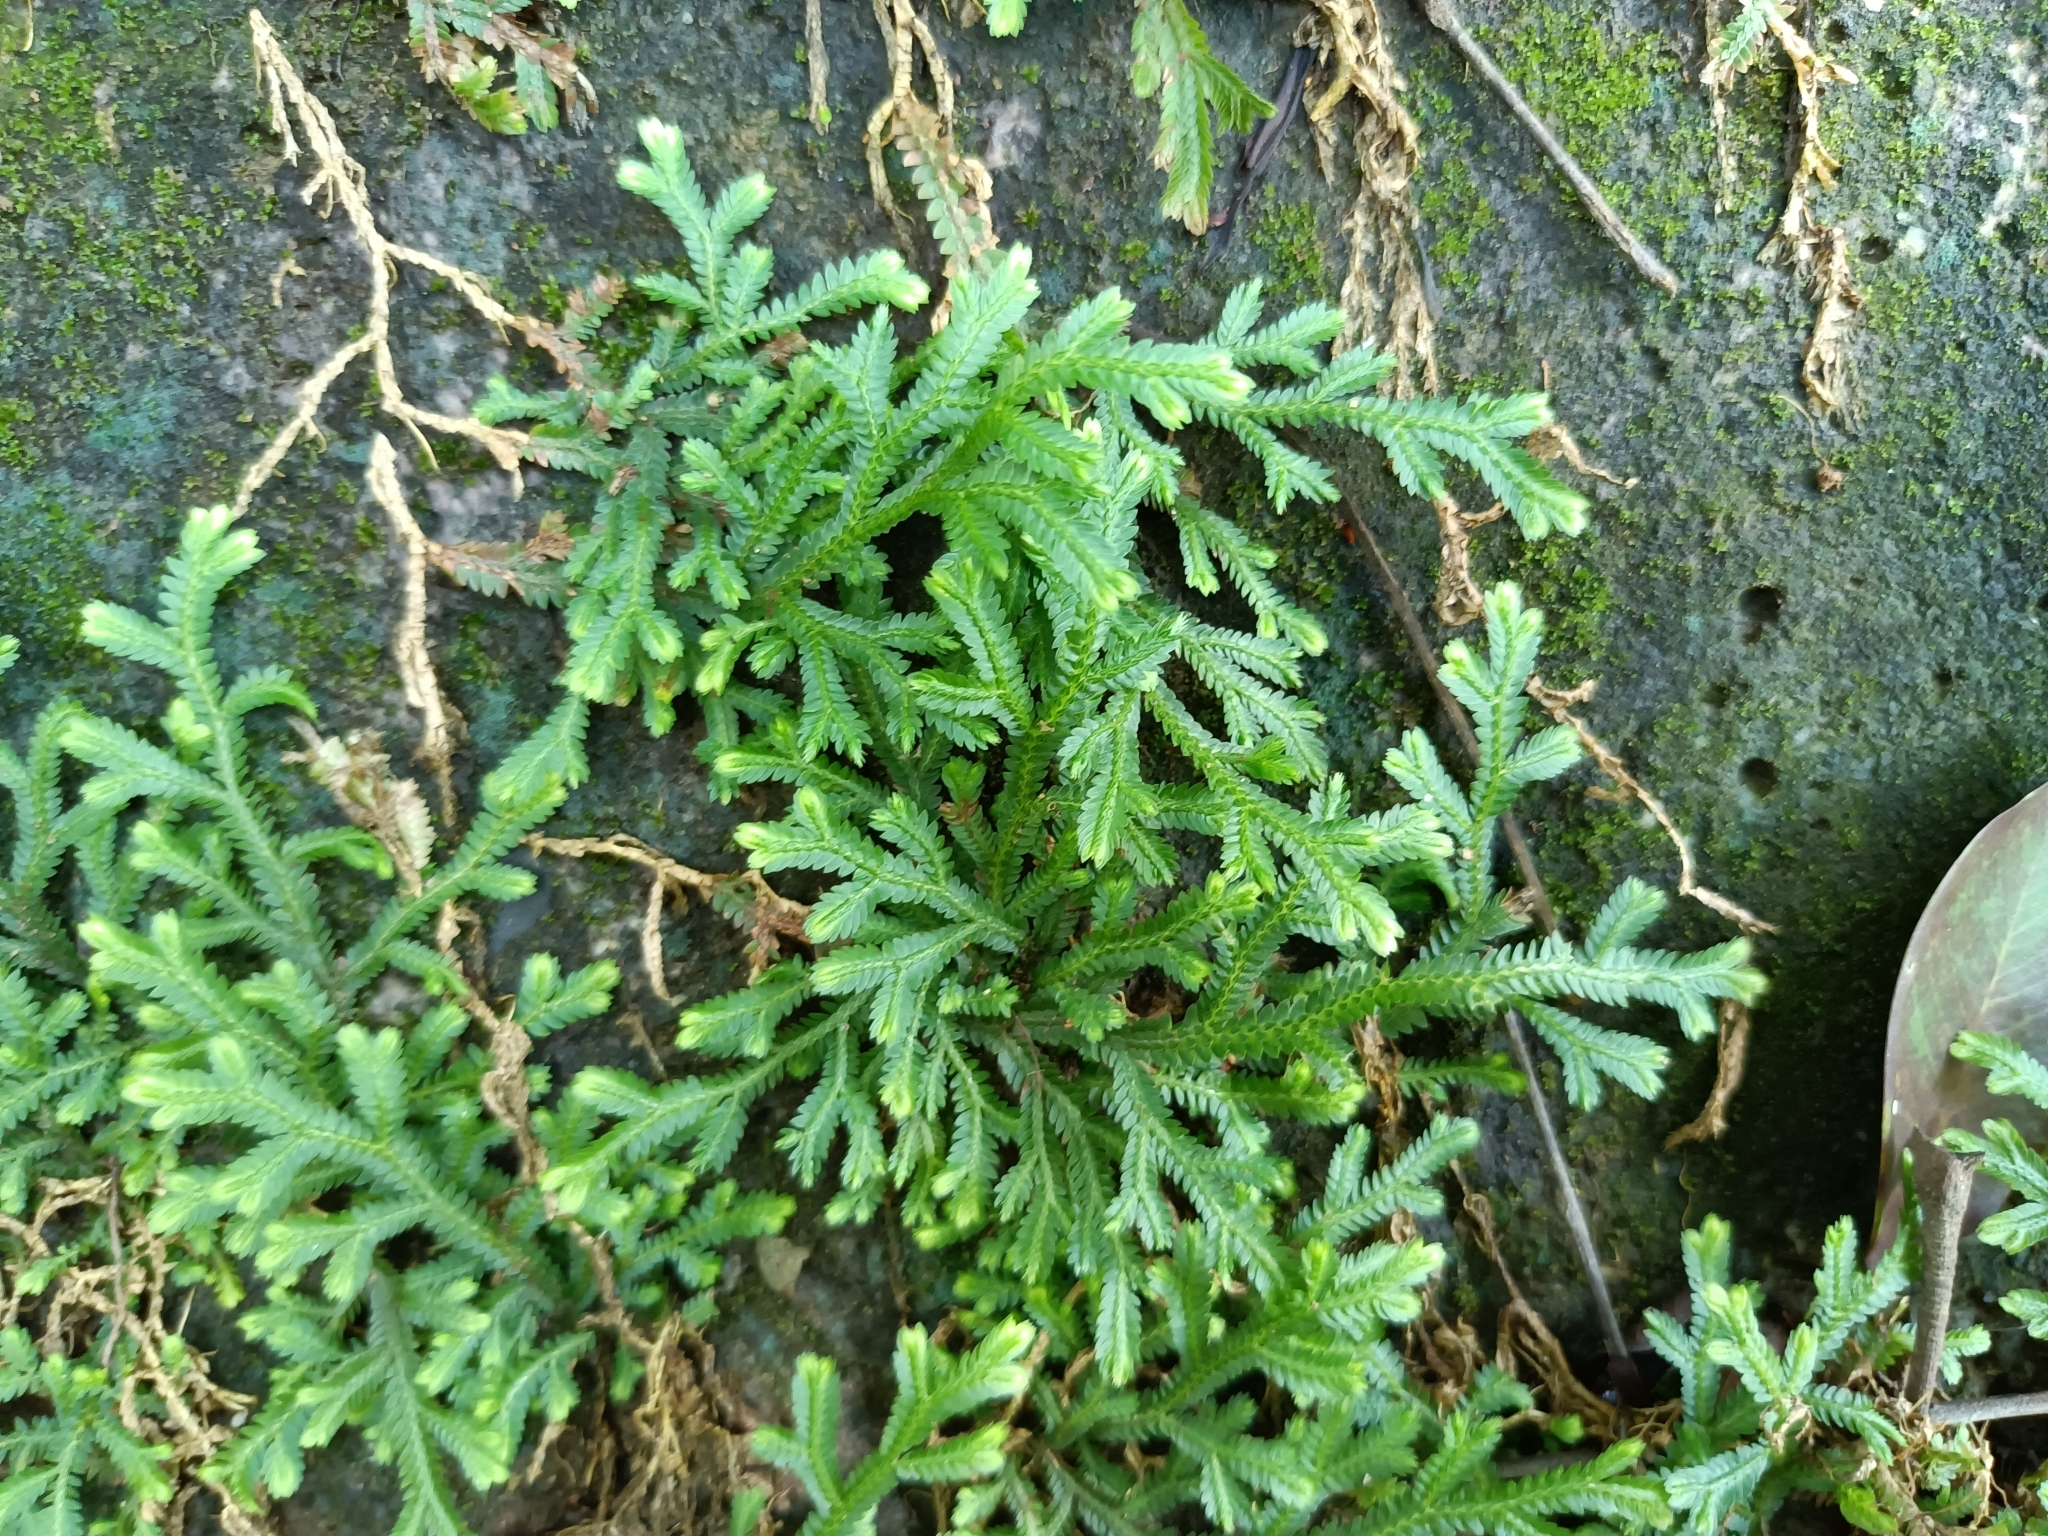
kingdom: Plantae
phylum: Tracheophyta
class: Lycopodiopsida
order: Selaginellales
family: Selaginellaceae
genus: Selaginella
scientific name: Selaginella repanda
